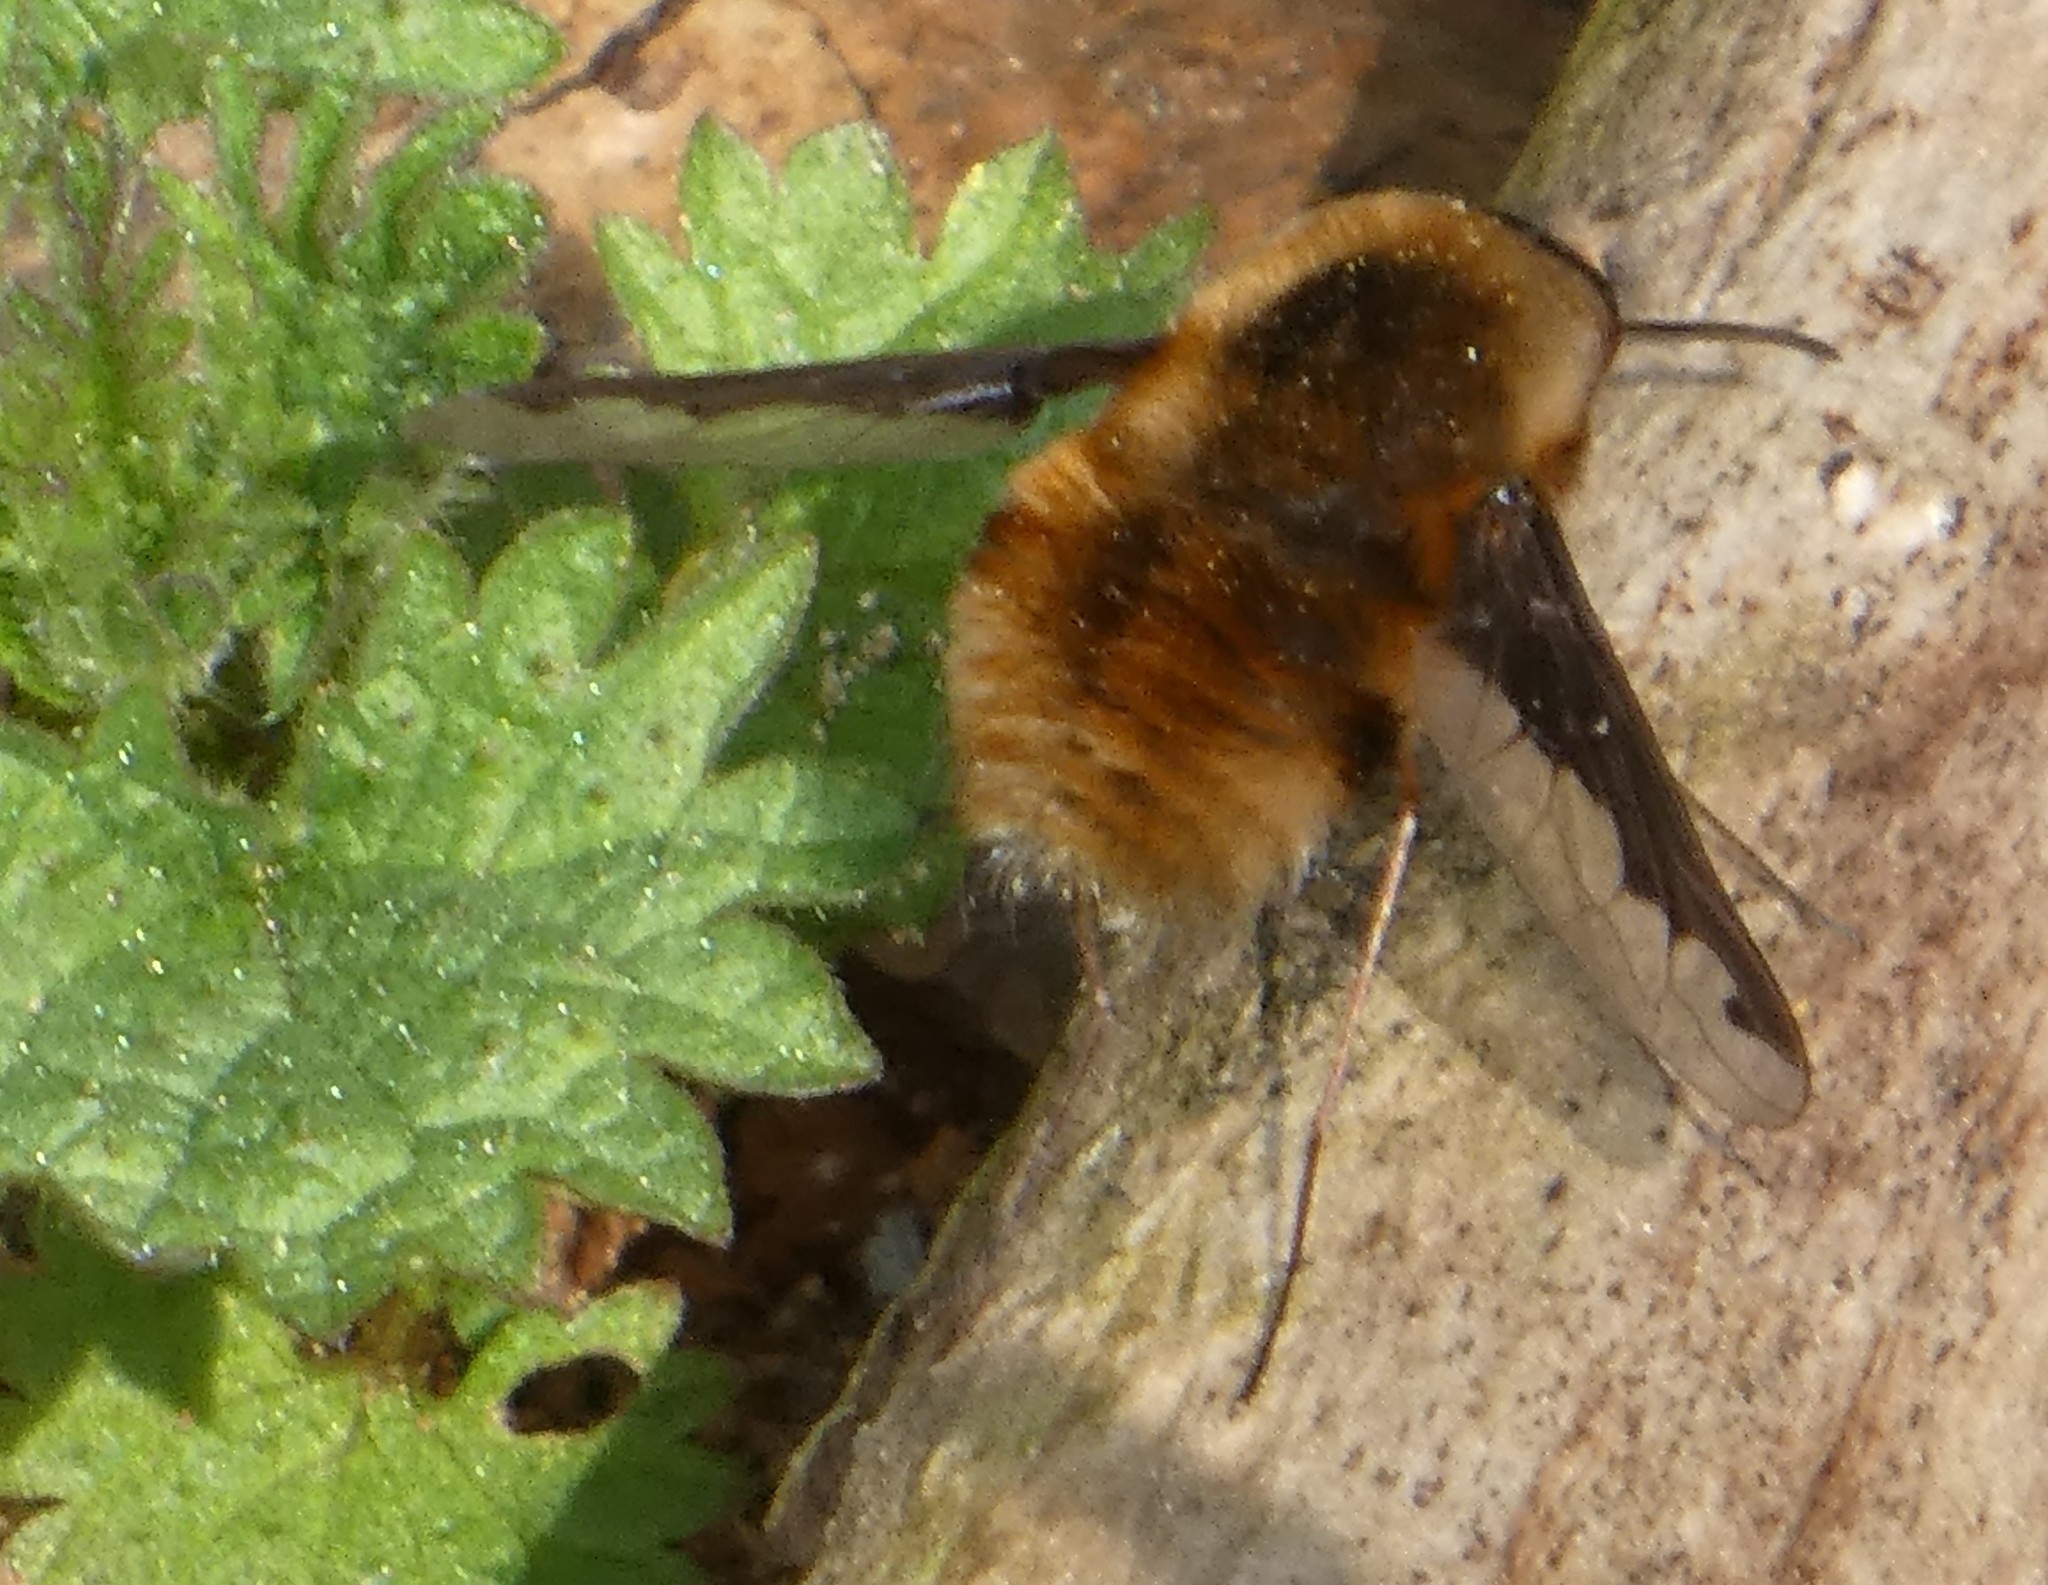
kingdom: Animalia
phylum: Arthropoda
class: Insecta
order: Diptera
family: Bombyliidae
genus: Bombylius
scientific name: Bombylius major
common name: Bee fly
